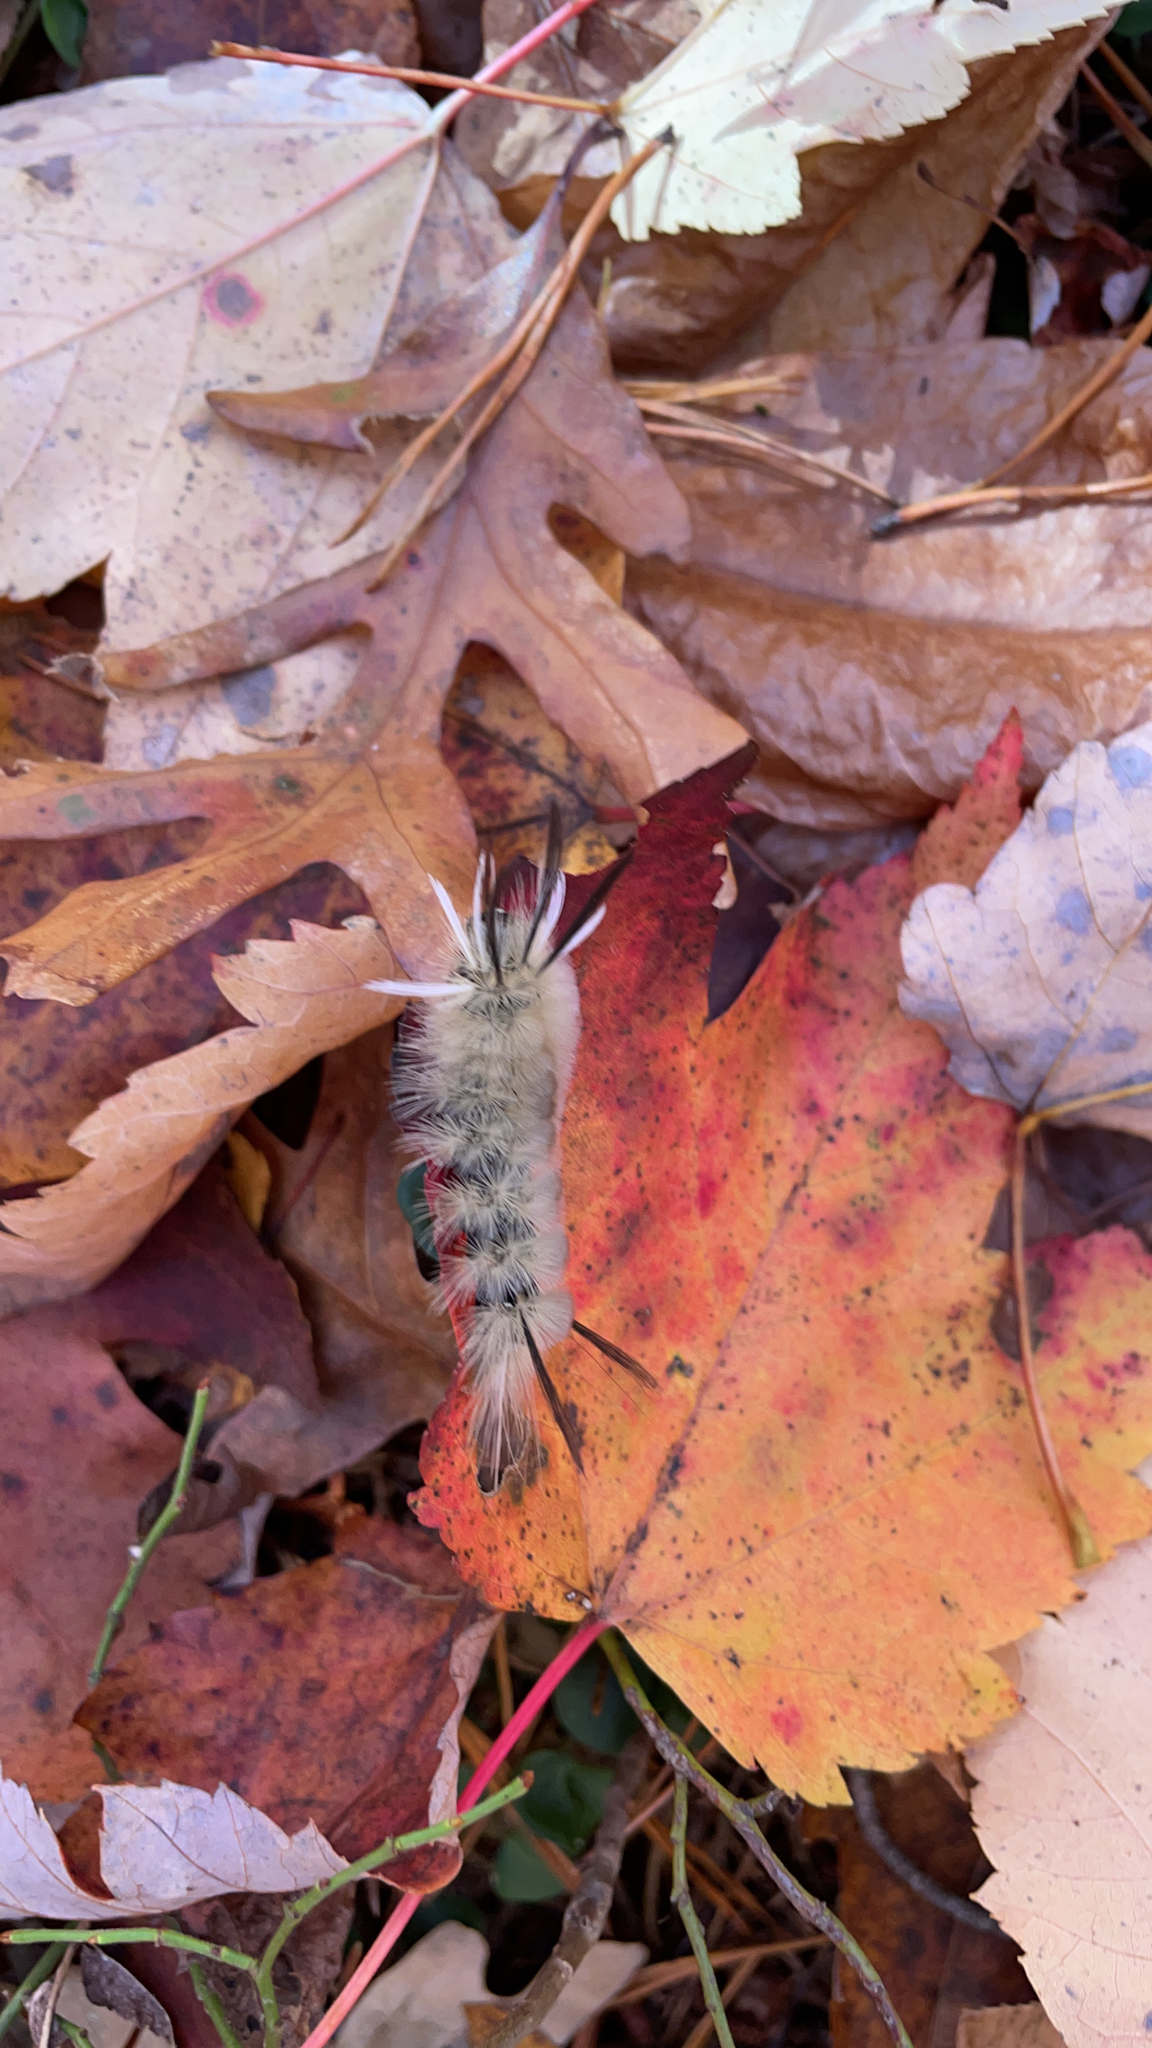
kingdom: Animalia
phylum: Arthropoda
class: Insecta
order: Lepidoptera
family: Erebidae
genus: Halysidota
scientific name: Halysidota tessellaris
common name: Banded tussock moth
